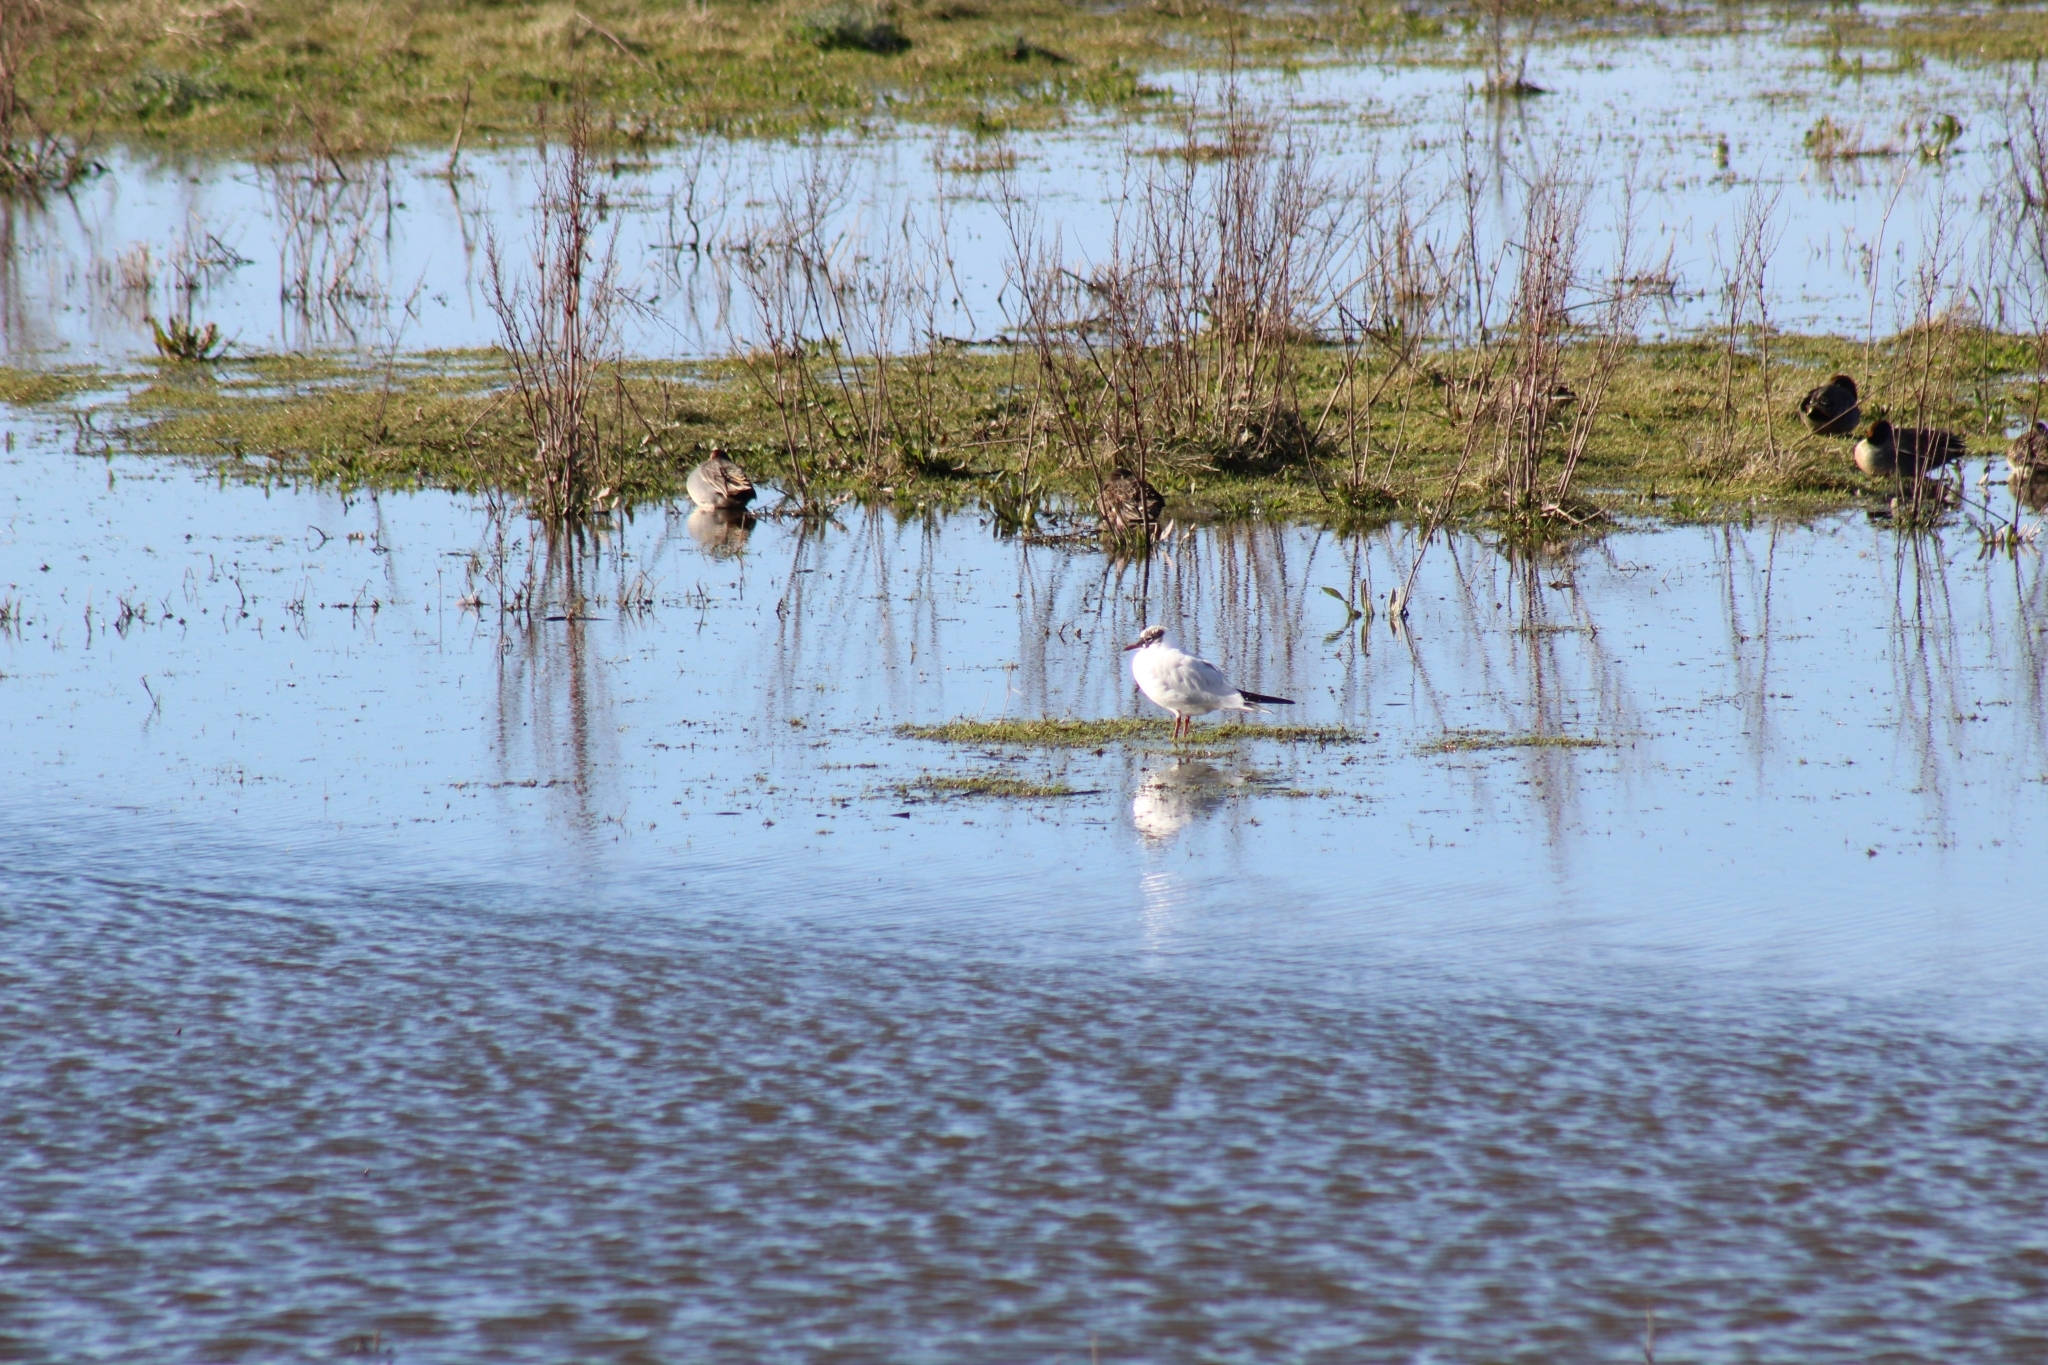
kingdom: Animalia
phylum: Chordata
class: Aves
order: Charadriiformes
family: Laridae
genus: Chroicocephalus
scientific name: Chroicocephalus ridibundus
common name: Black-headed gull
